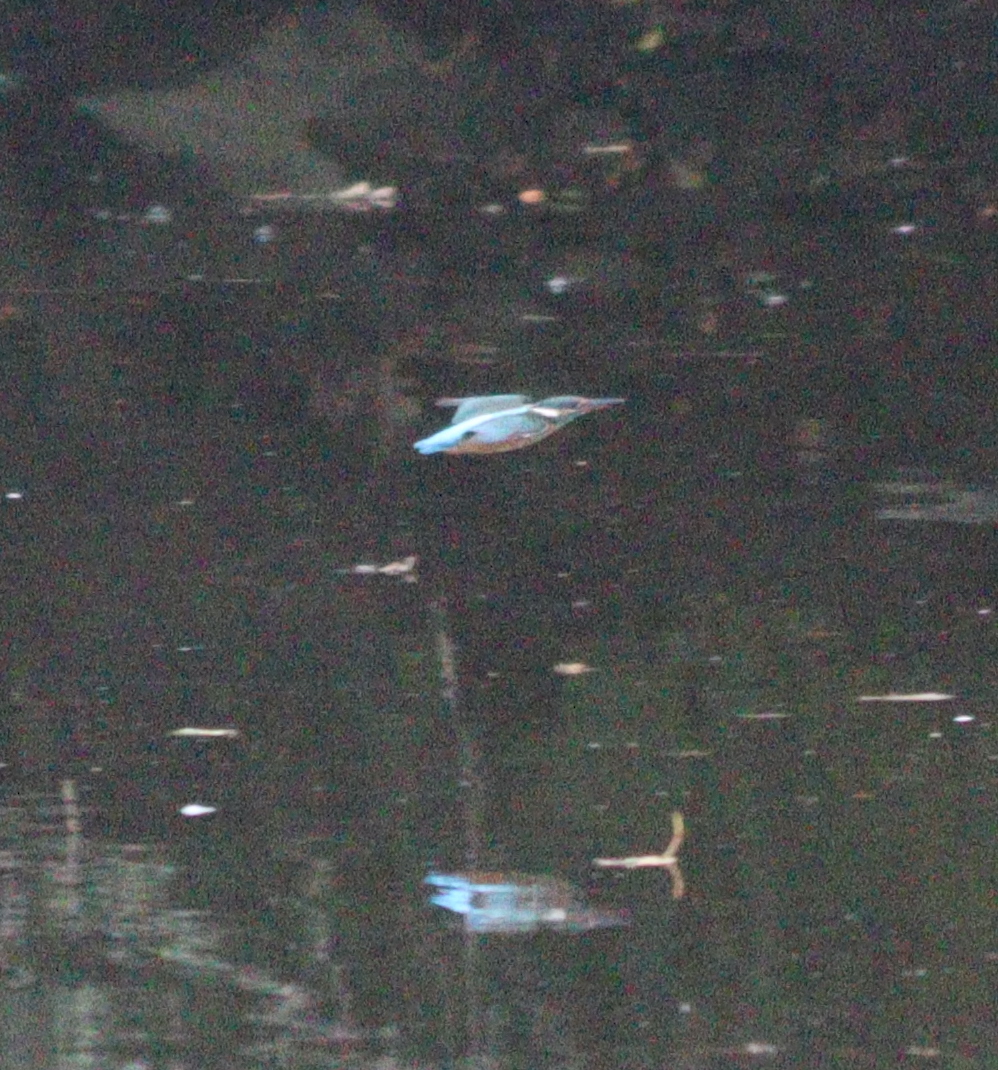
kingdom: Animalia
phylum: Chordata
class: Aves
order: Coraciiformes
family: Alcedinidae
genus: Alcedo
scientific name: Alcedo atthis
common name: Common kingfisher
